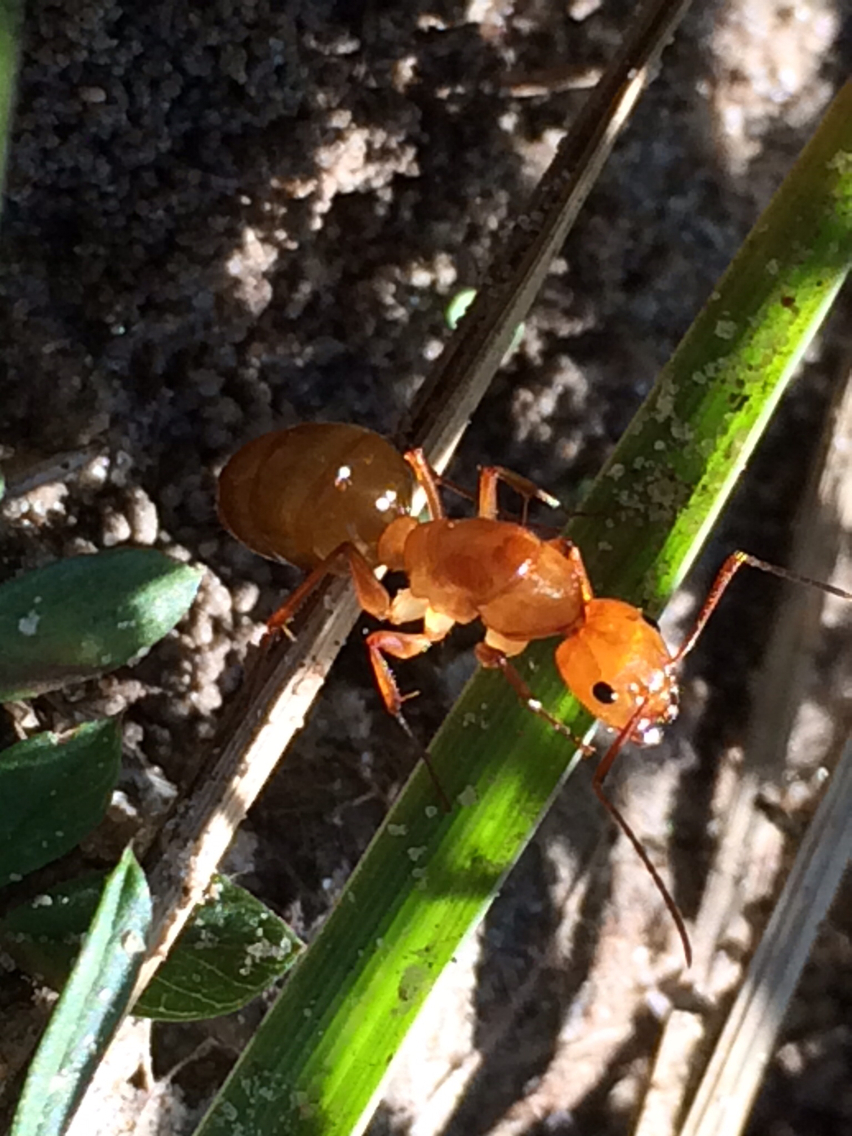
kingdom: Animalia
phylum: Arthropoda
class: Insecta
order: Hymenoptera
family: Formicidae
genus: Camponotus
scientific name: Camponotus castaneus
